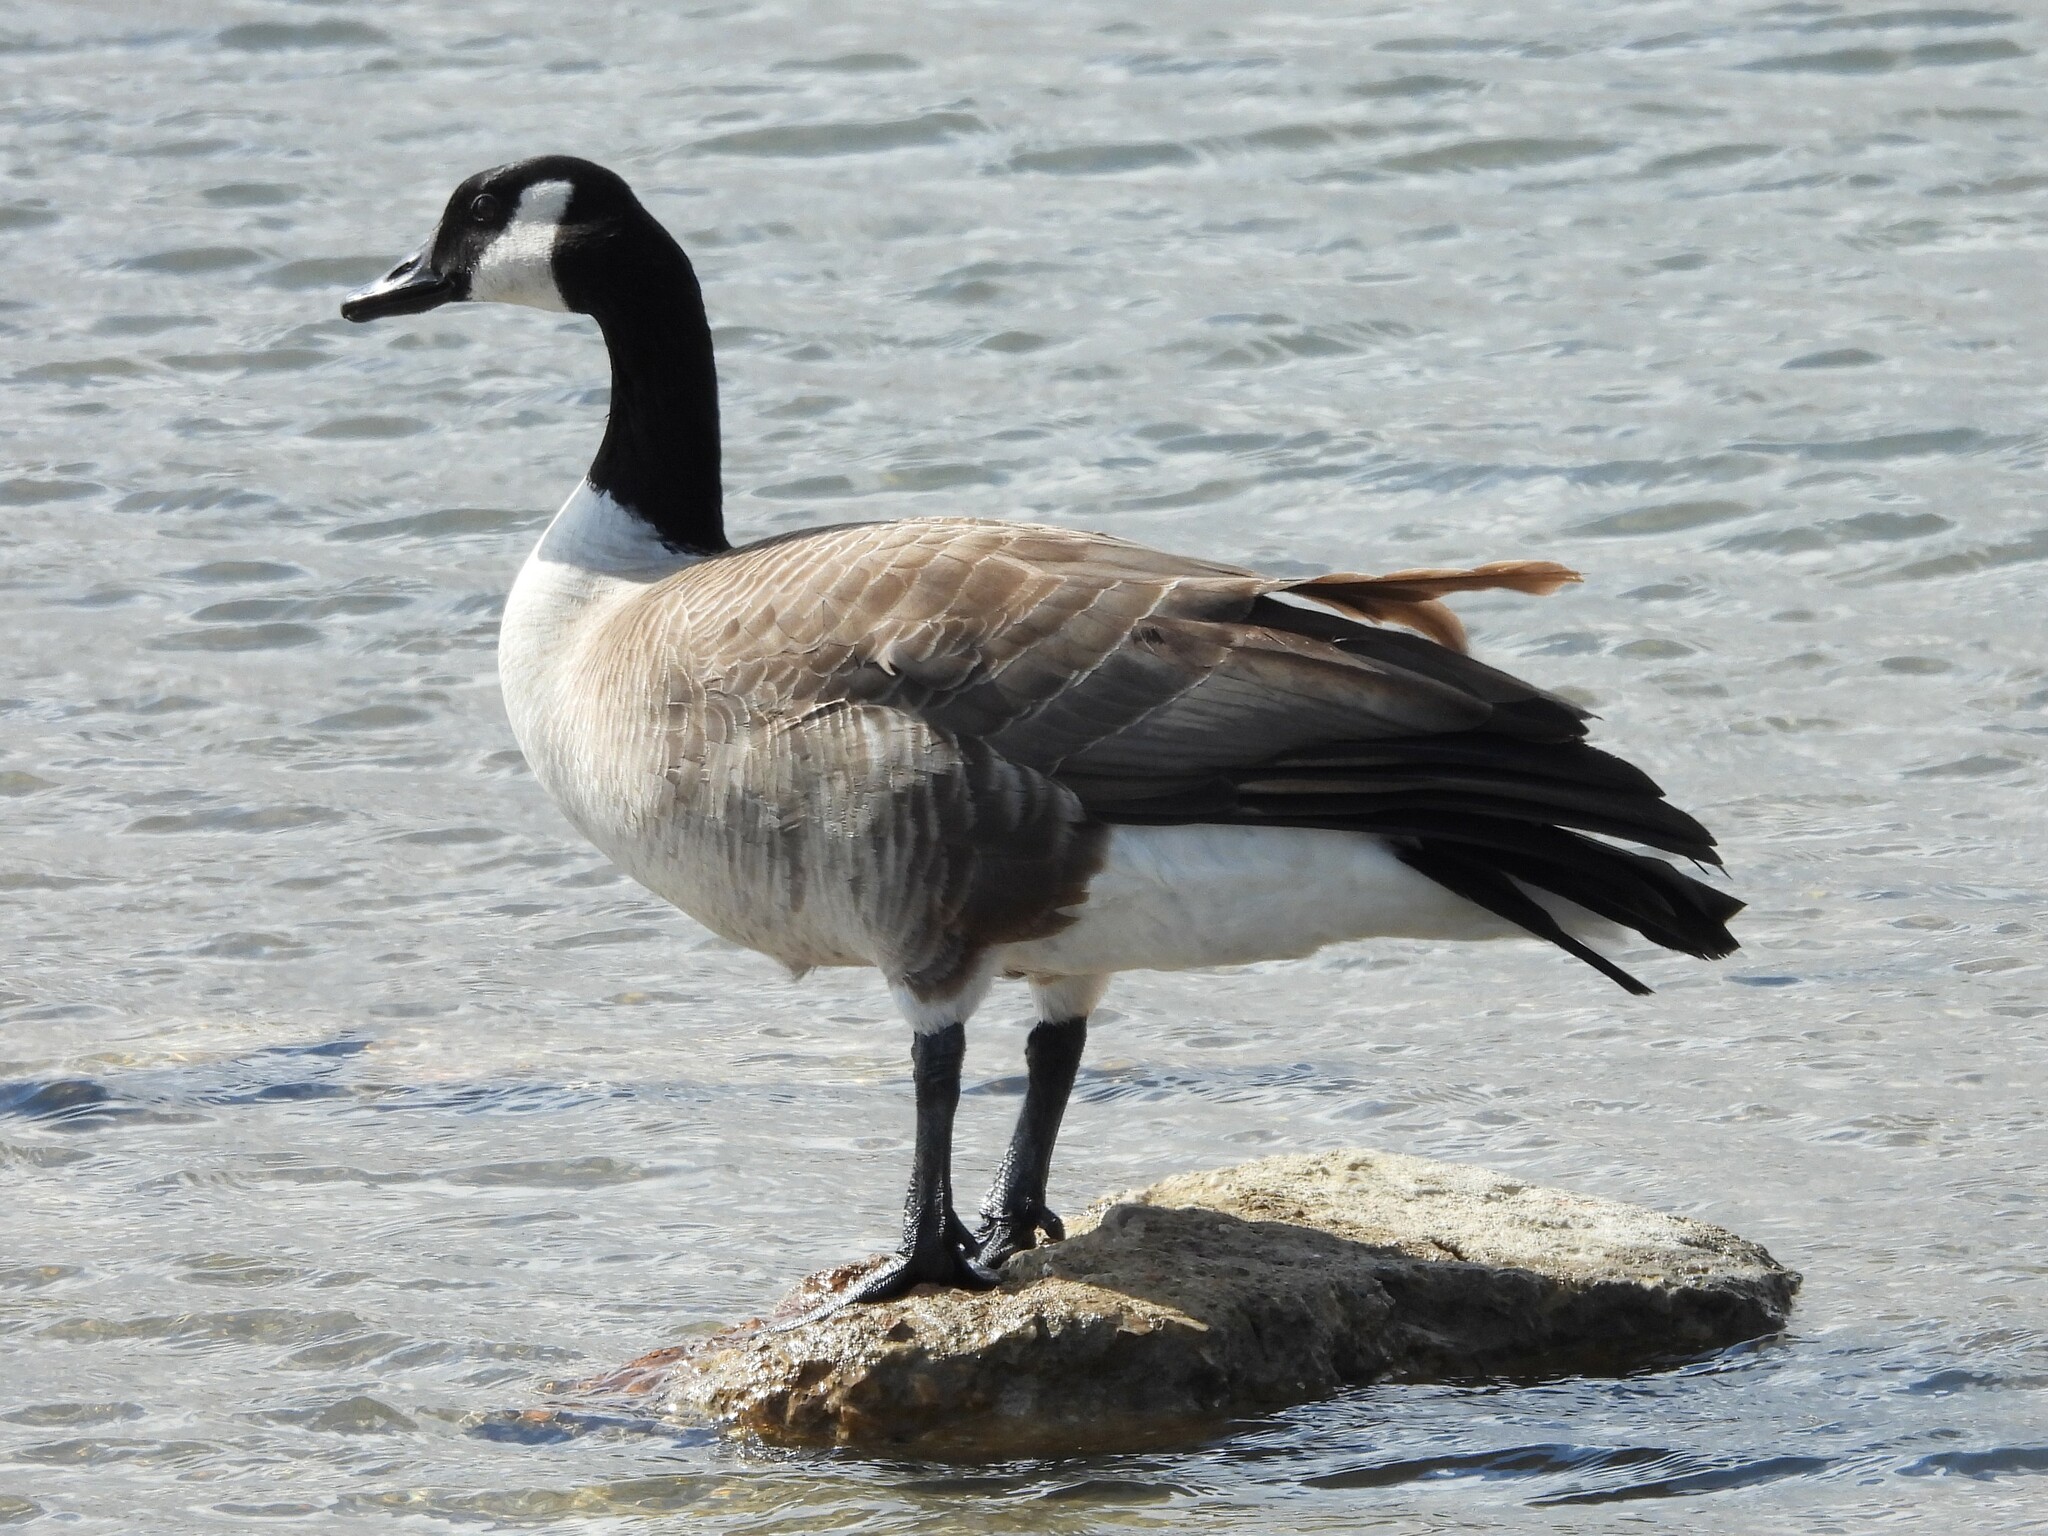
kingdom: Animalia
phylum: Chordata
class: Aves
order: Anseriformes
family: Anatidae
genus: Branta
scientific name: Branta canadensis
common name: Canada goose
